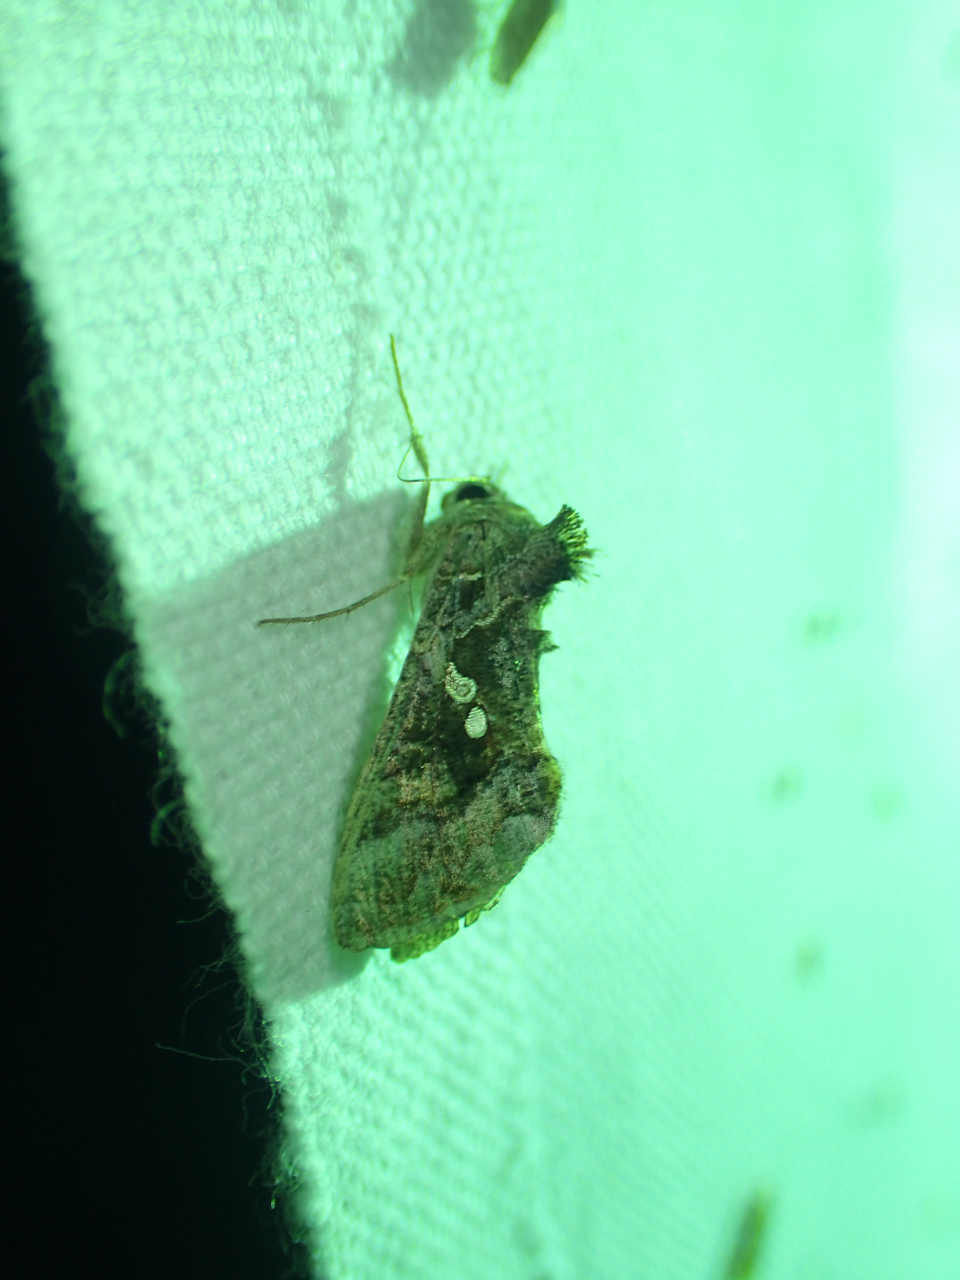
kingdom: Animalia
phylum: Arthropoda
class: Insecta
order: Lepidoptera
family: Noctuidae
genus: Chrysodeixis
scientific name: Chrysodeixis includens
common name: Cutworm moth
